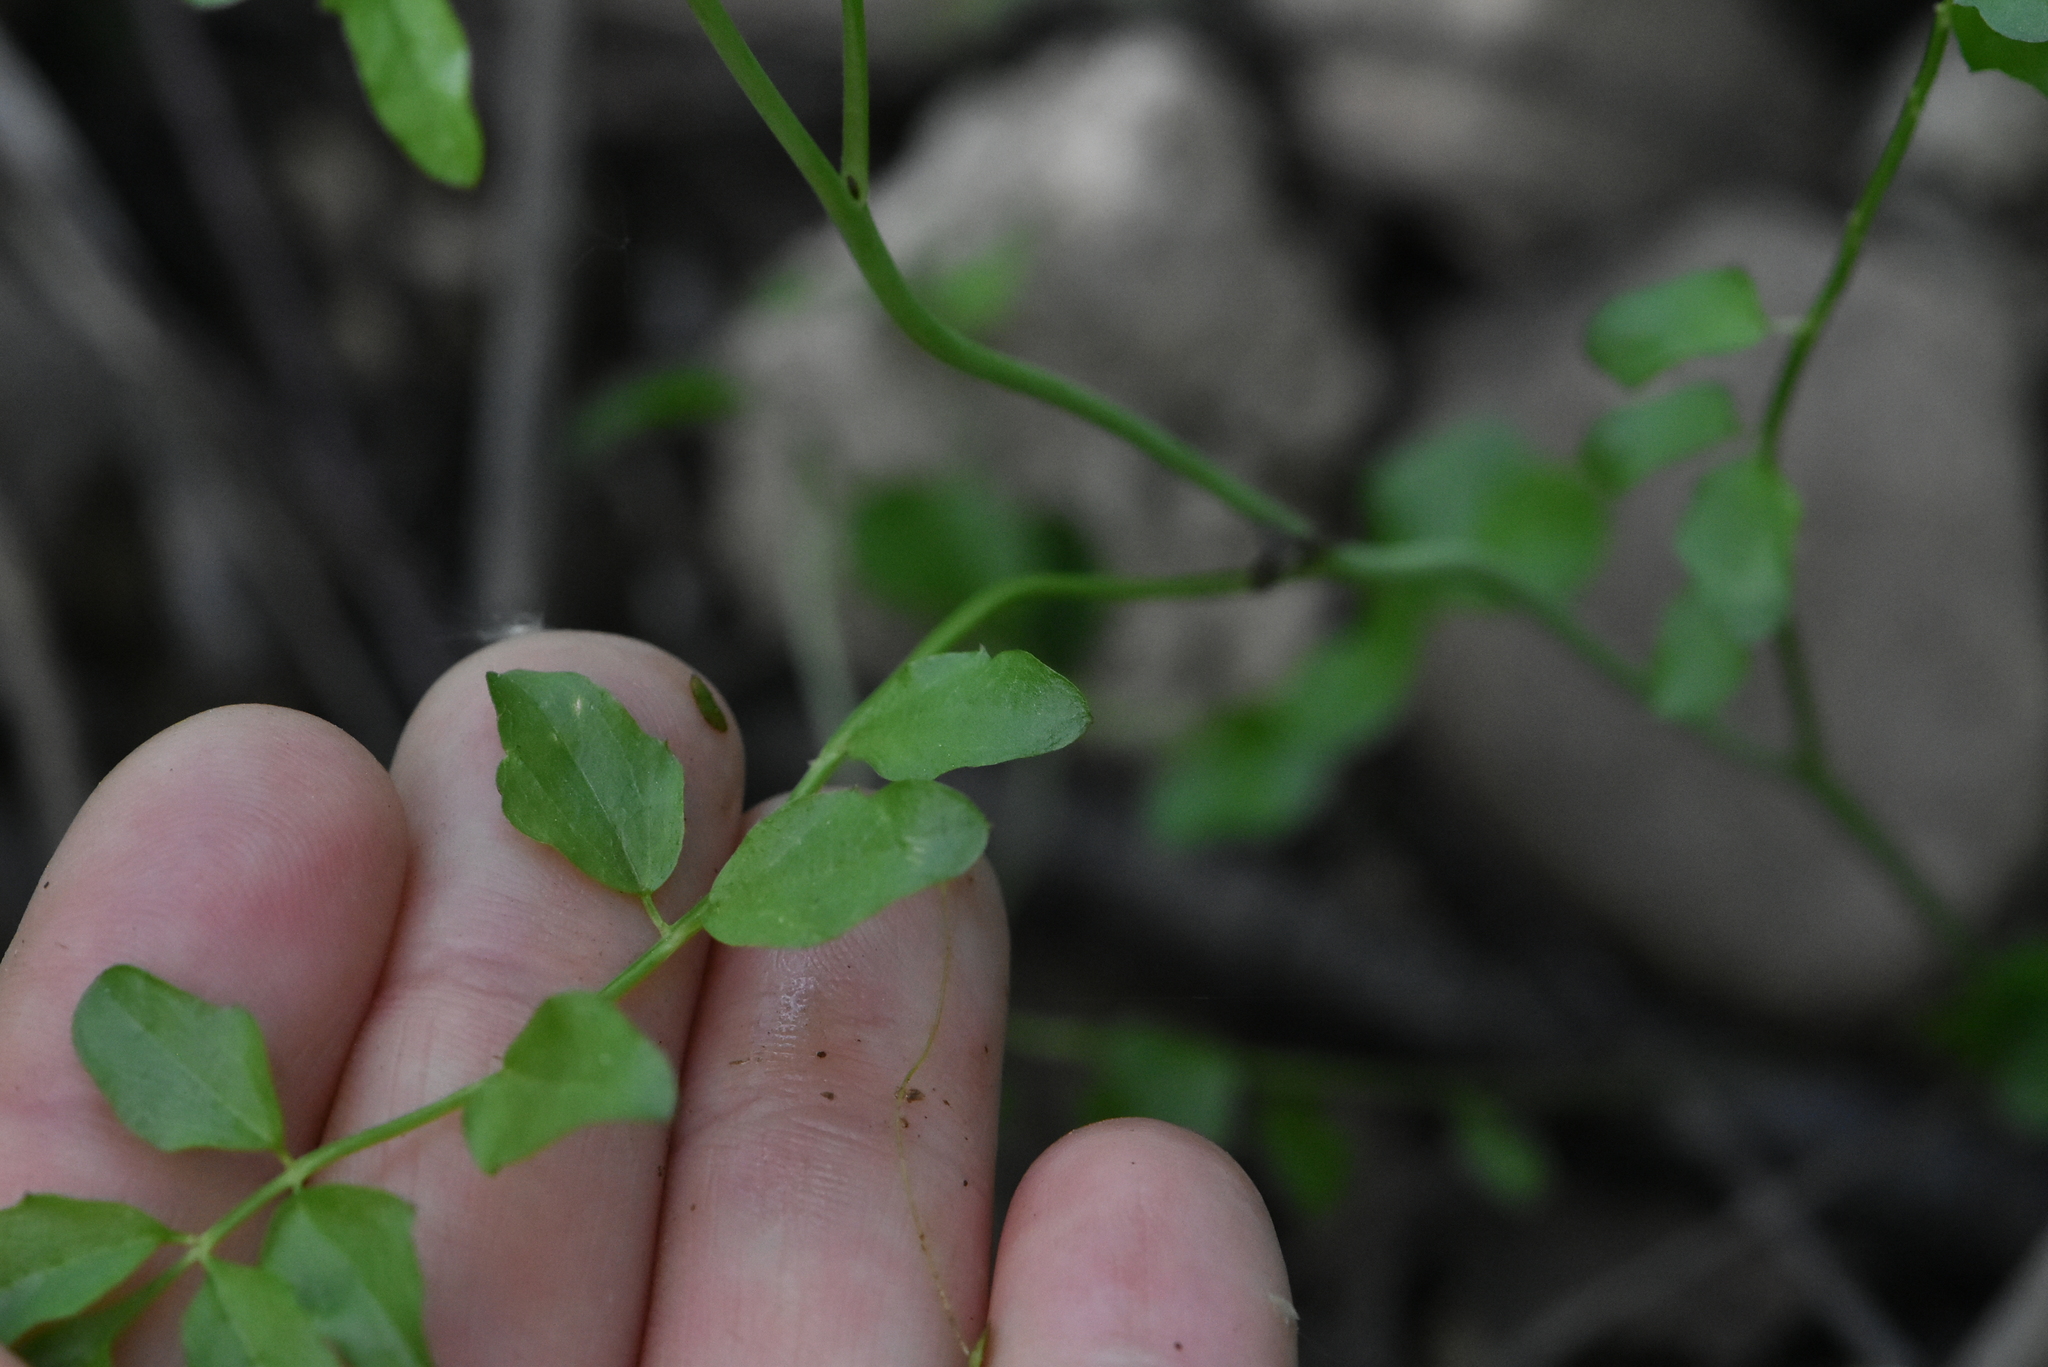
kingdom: Plantae
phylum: Tracheophyta
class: Magnoliopsida
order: Brassicales
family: Brassicaceae
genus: Cardamine
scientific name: Cardamine dentata
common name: Toothed bittercress
